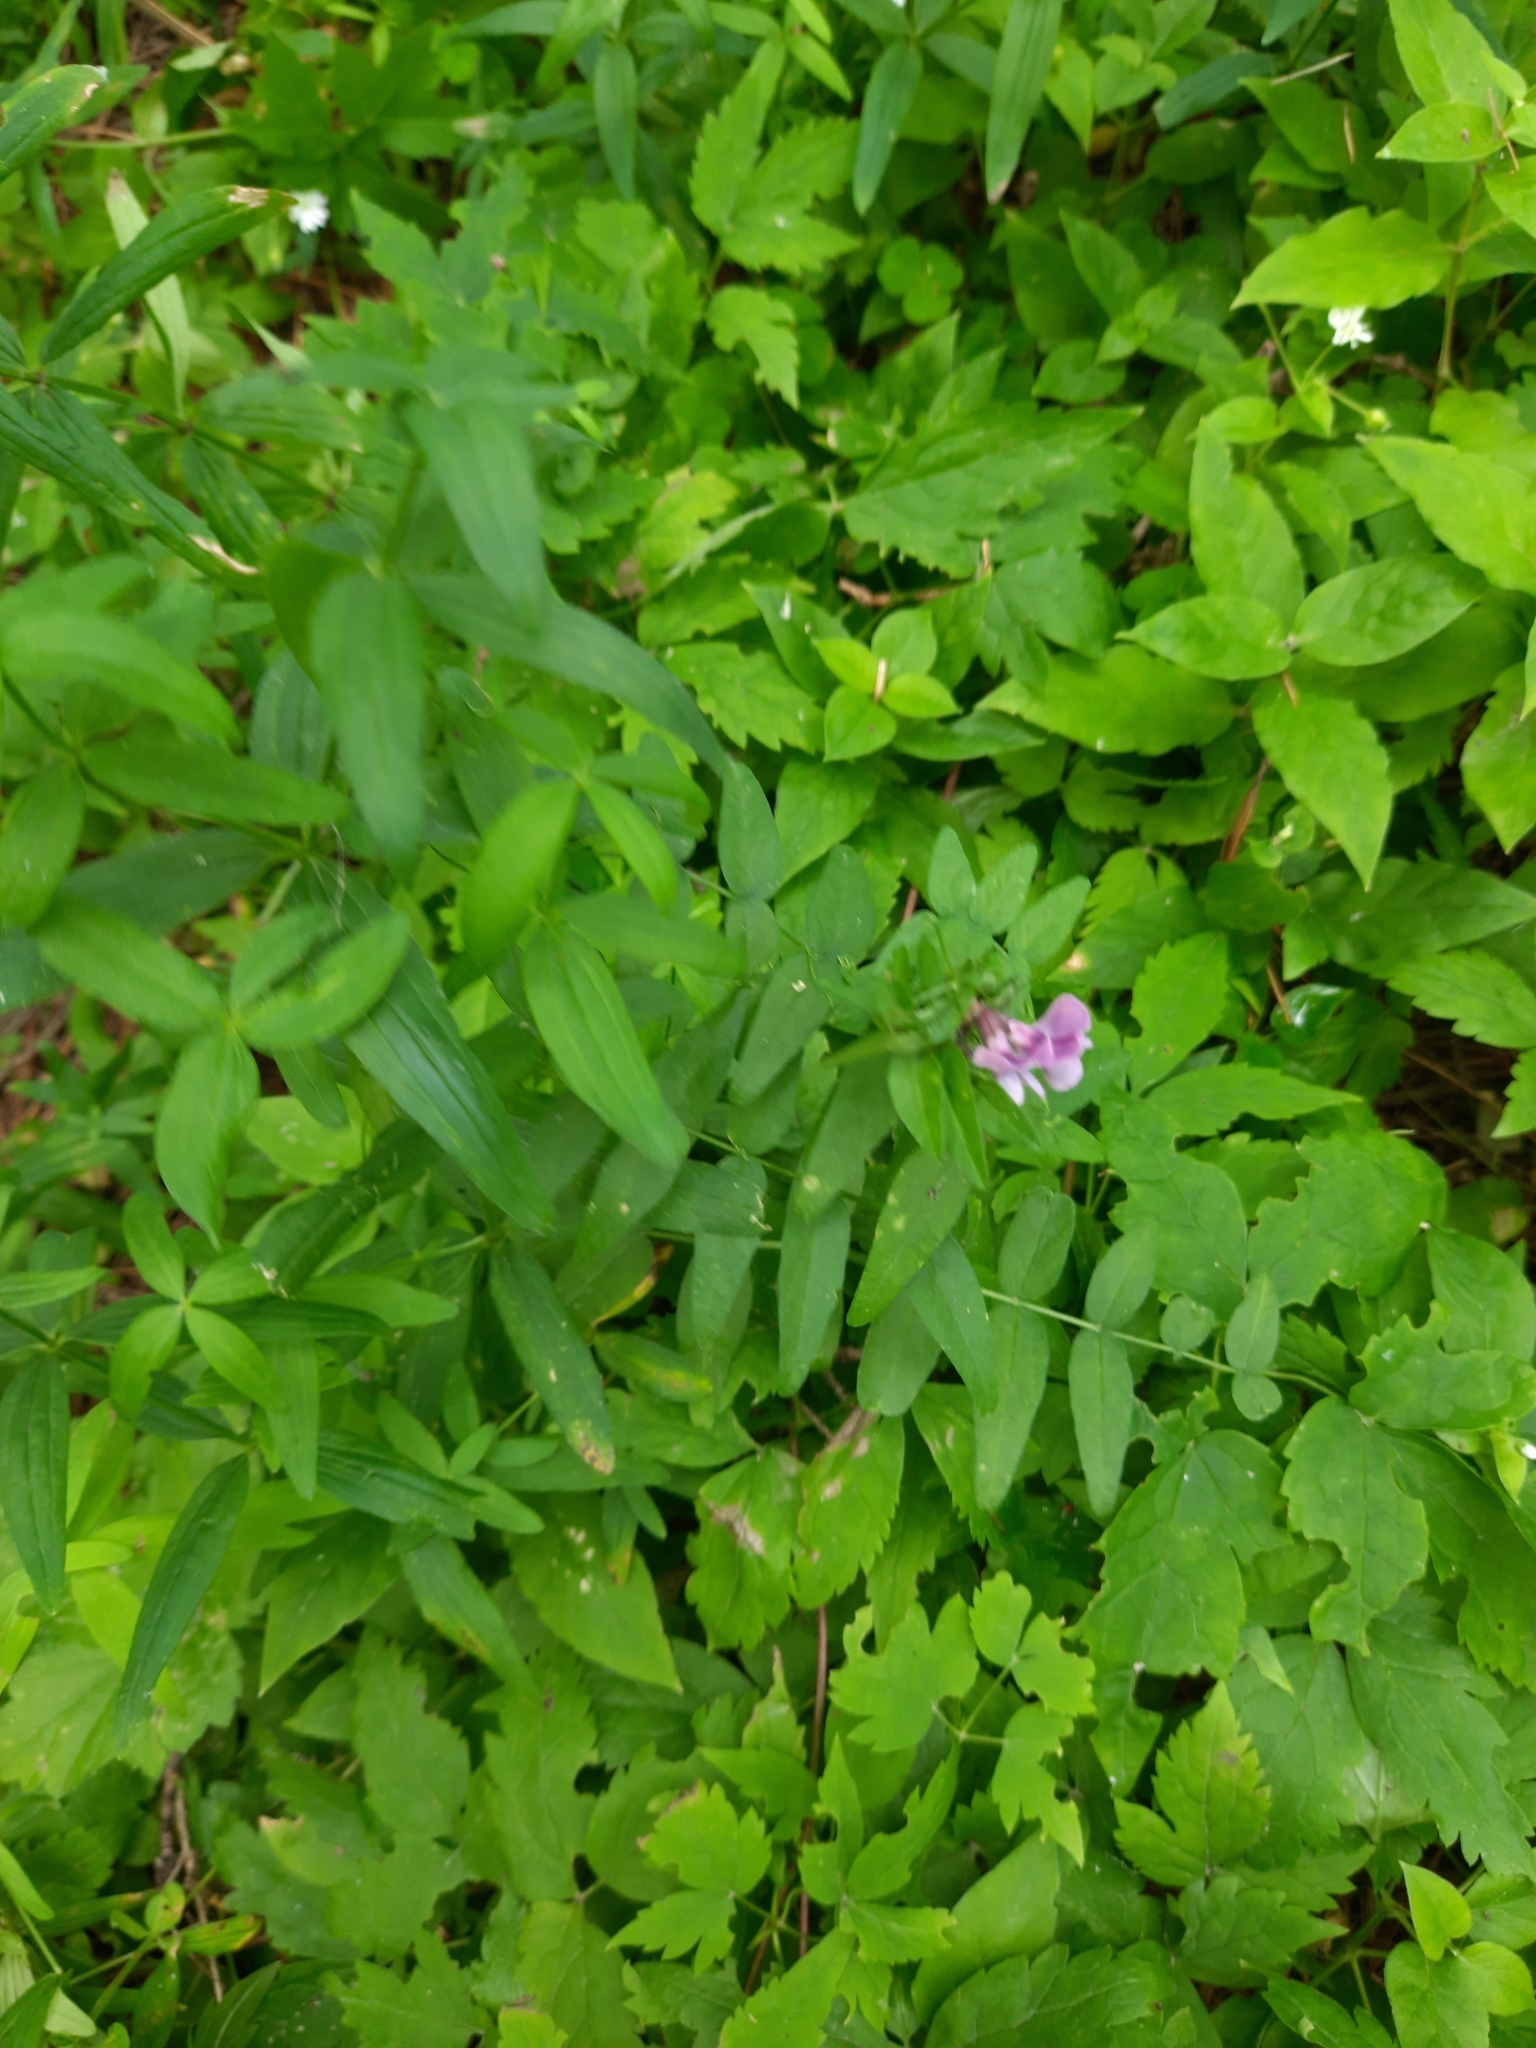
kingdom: Plantae
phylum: Tracheophyta
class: Magnoliopsida
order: Fabales
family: Fabaceae
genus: Vicia
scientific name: Vicia sepium
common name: Bush vetch
